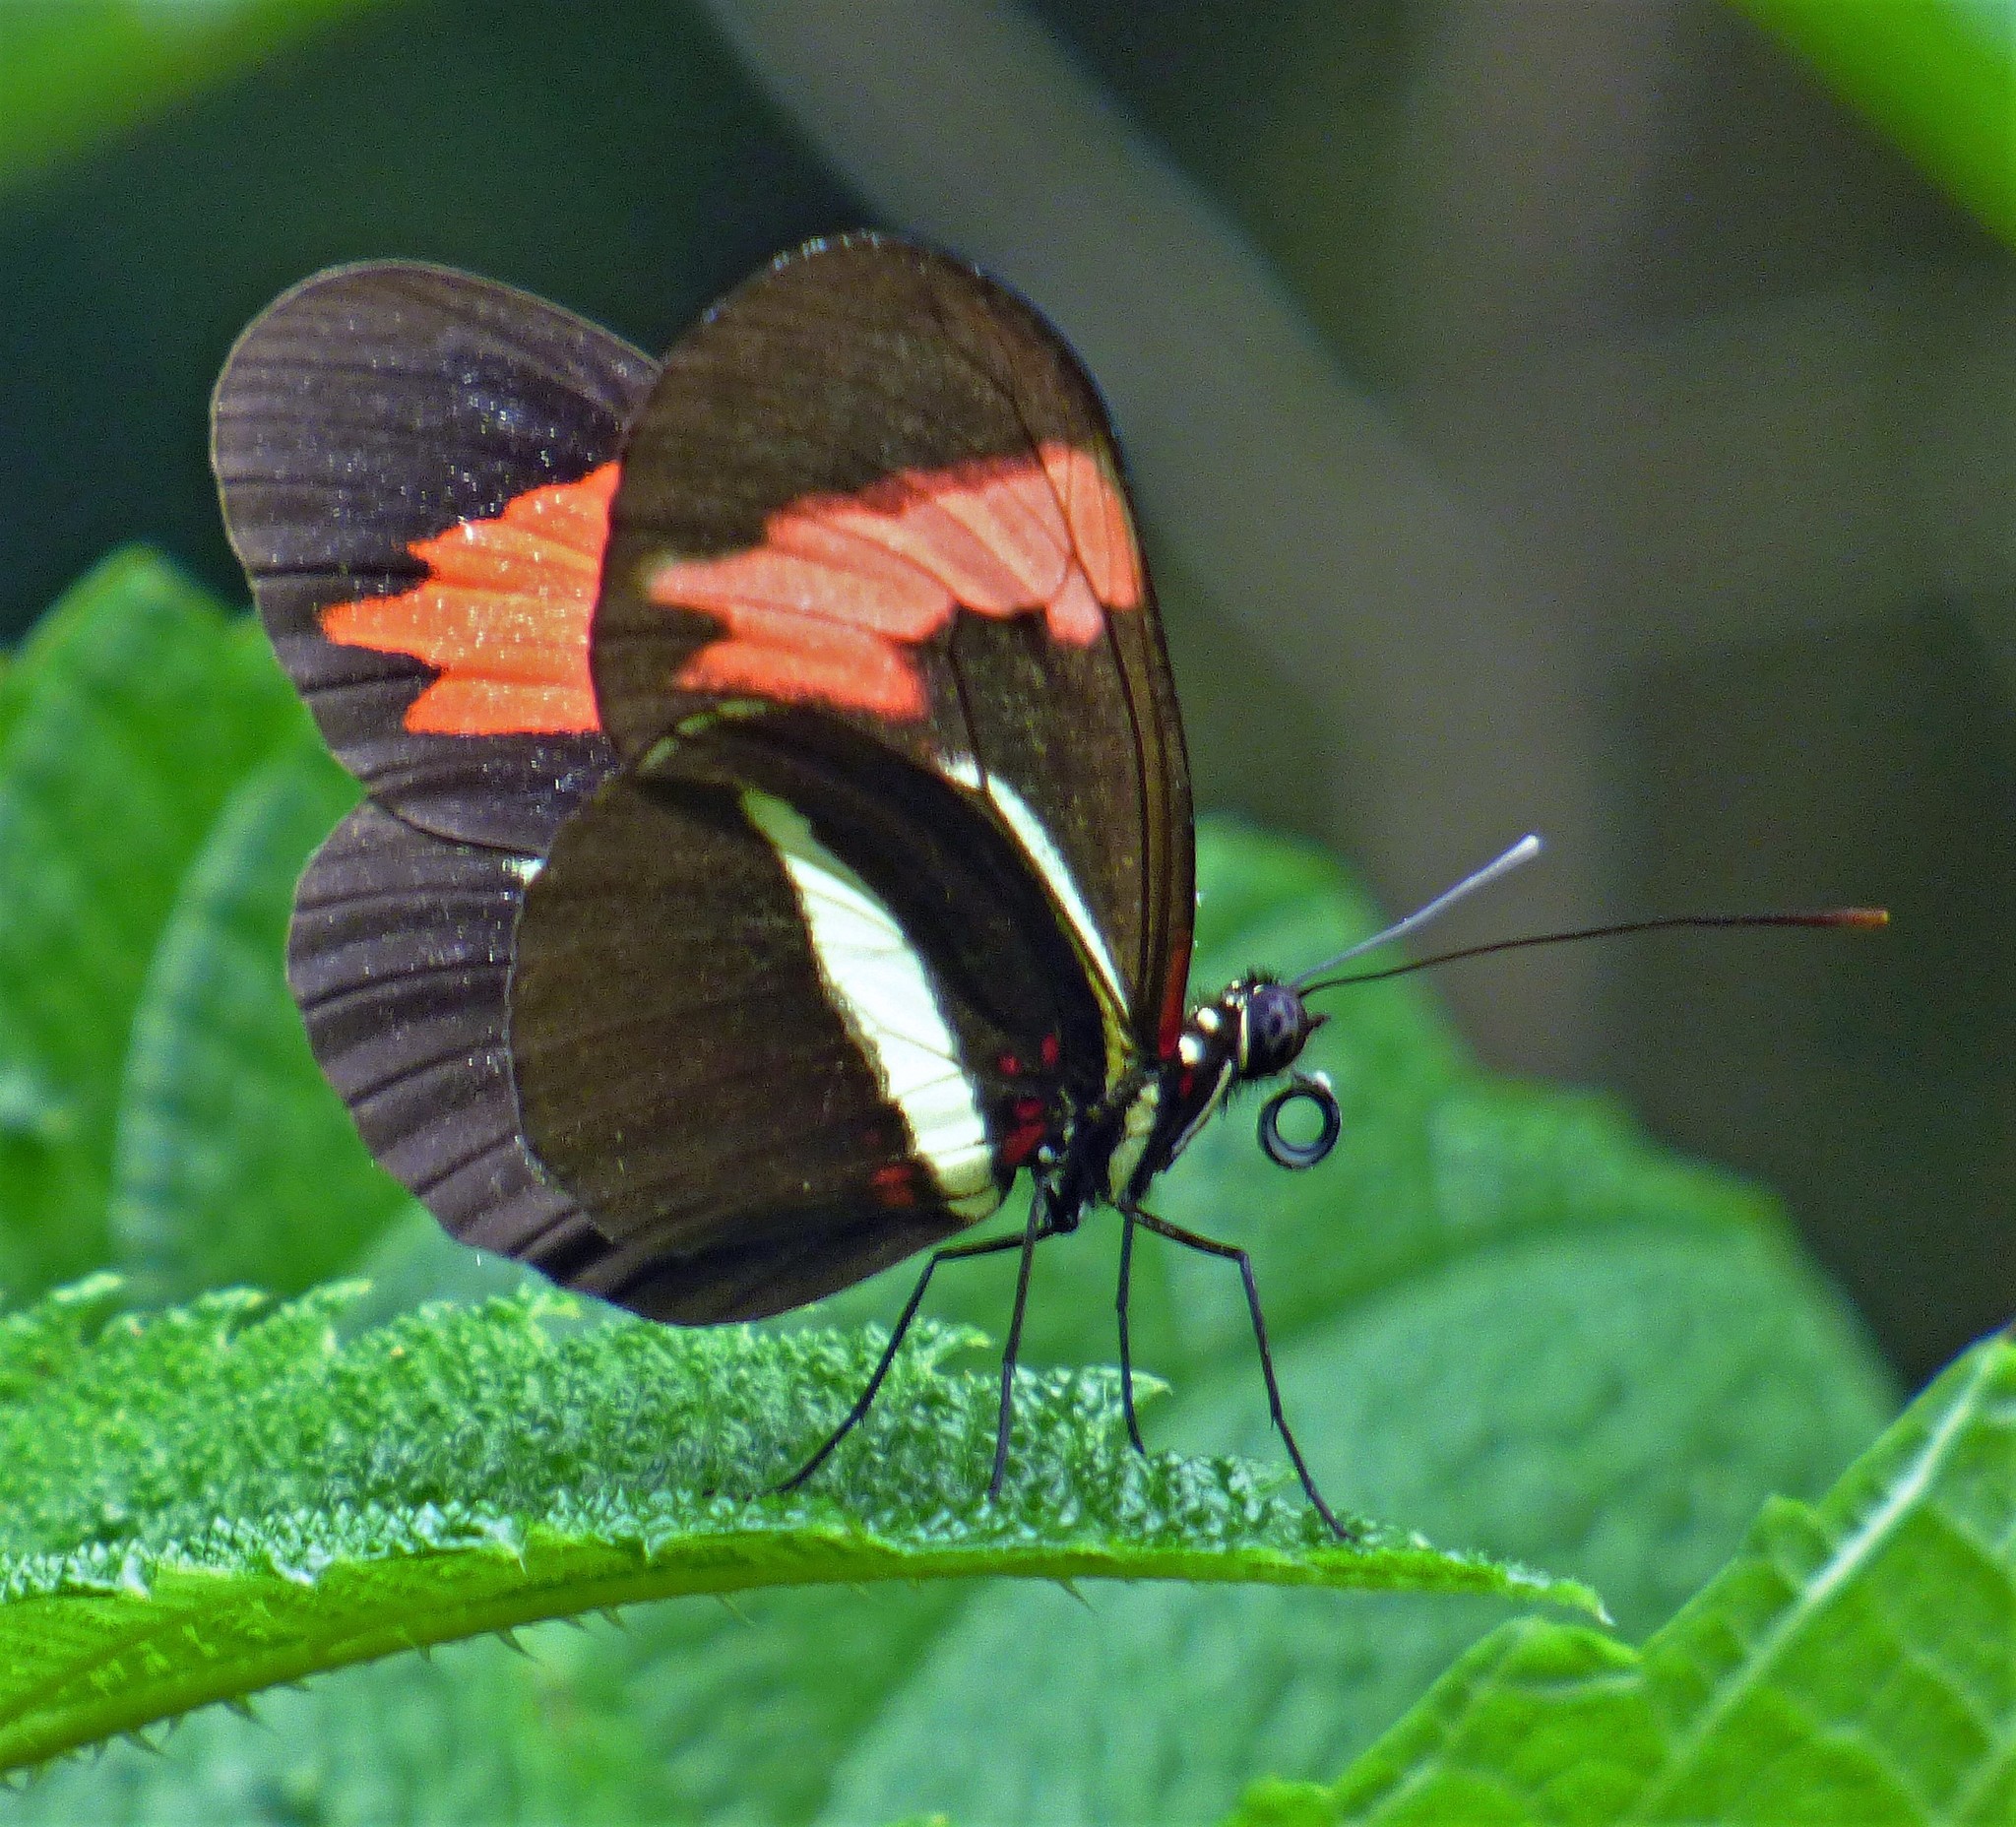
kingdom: Animalia
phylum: Arthropoda
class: Insecta
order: Lepidoptera
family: Nymphalidae
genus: Heliconius
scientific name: Heliconius erato
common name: Common patch longwing
